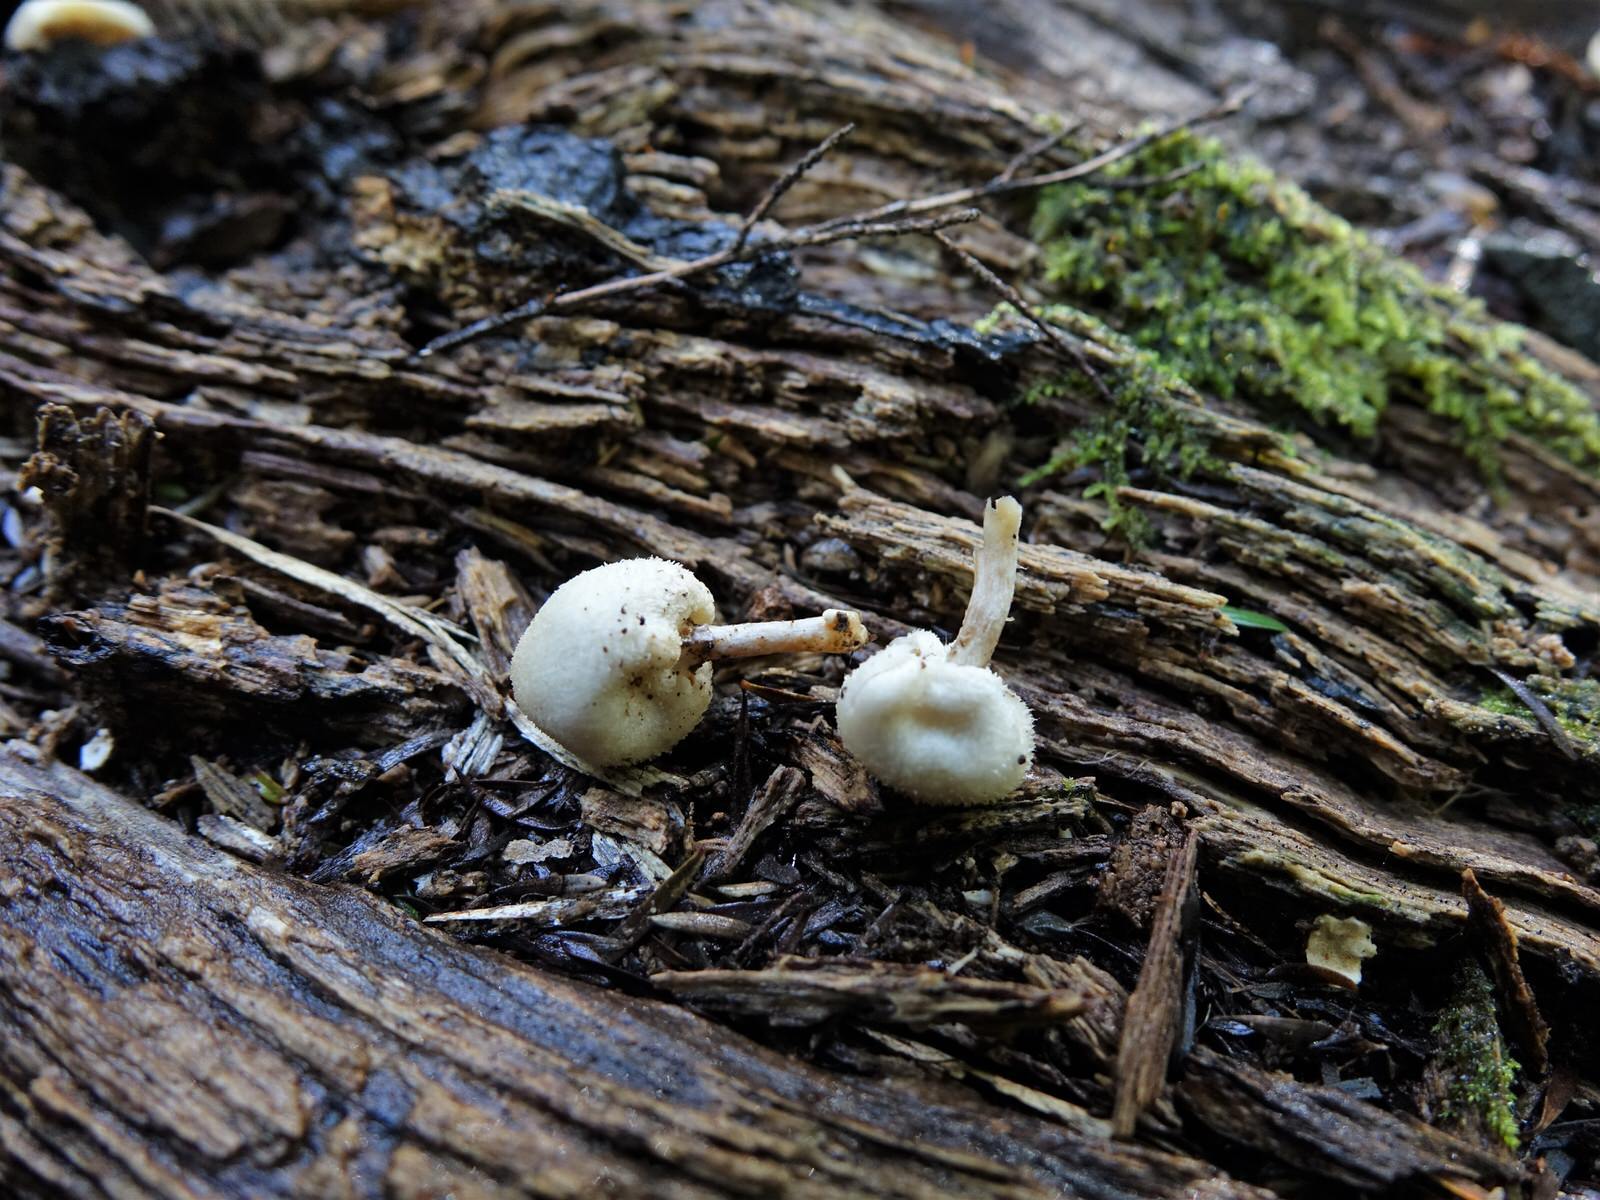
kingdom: Fungi
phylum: Basidiomycota
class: Agaricomycetes
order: Agaricales
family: Bolbitiaceae
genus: Tympanella
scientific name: Tympanella galanthina
